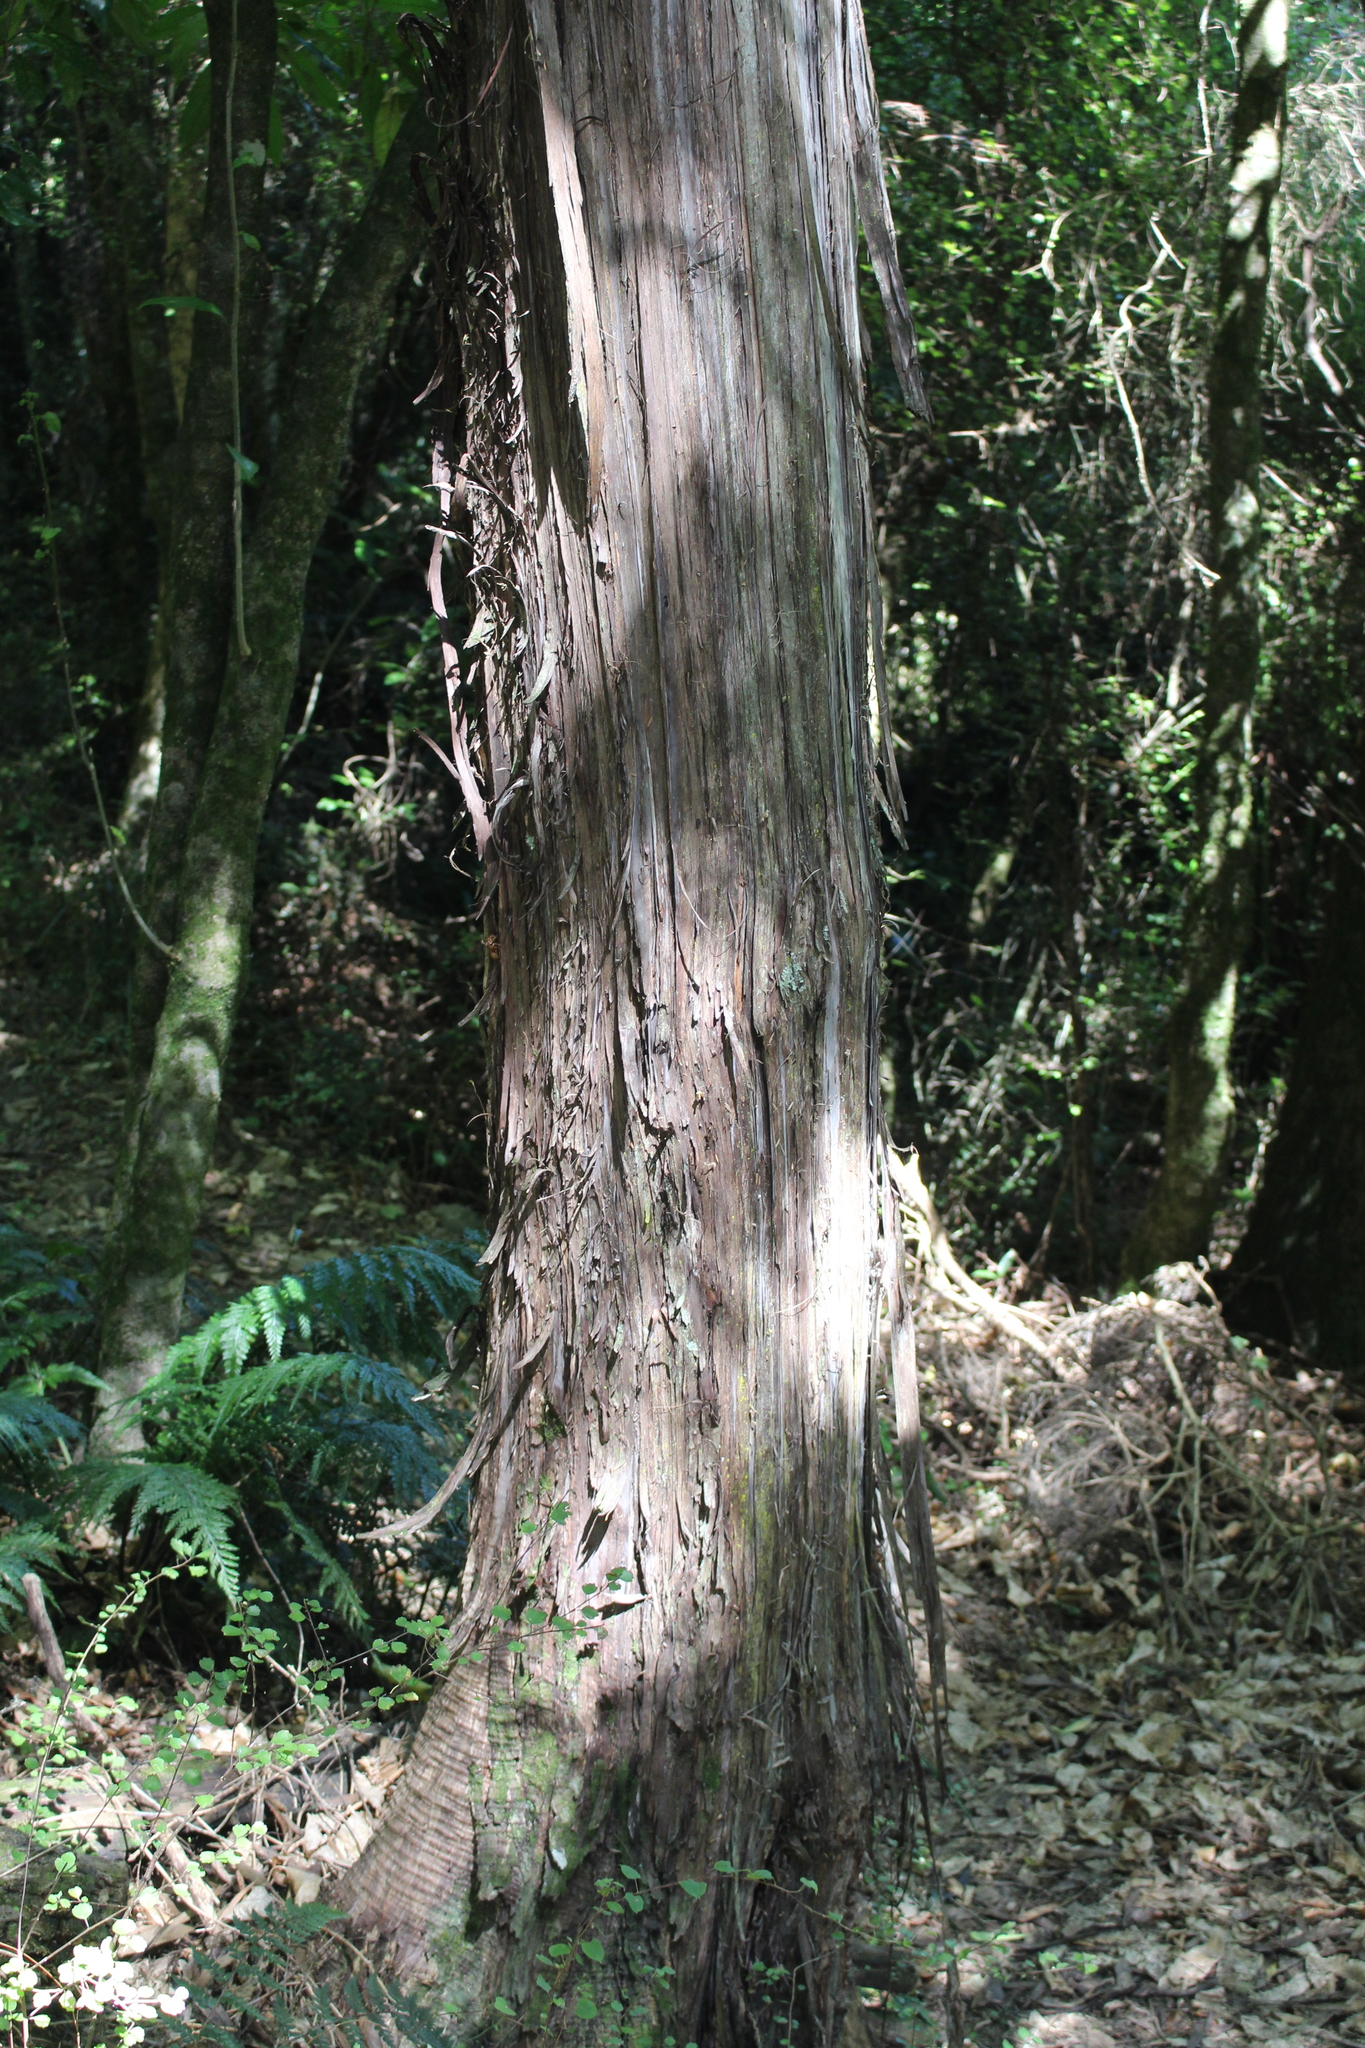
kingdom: Plantae
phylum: Tracheophyta
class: Pinopsida
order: Pinales
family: Podocarpaceae
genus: Podocarpus
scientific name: Podocarpus totara
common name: Totara
